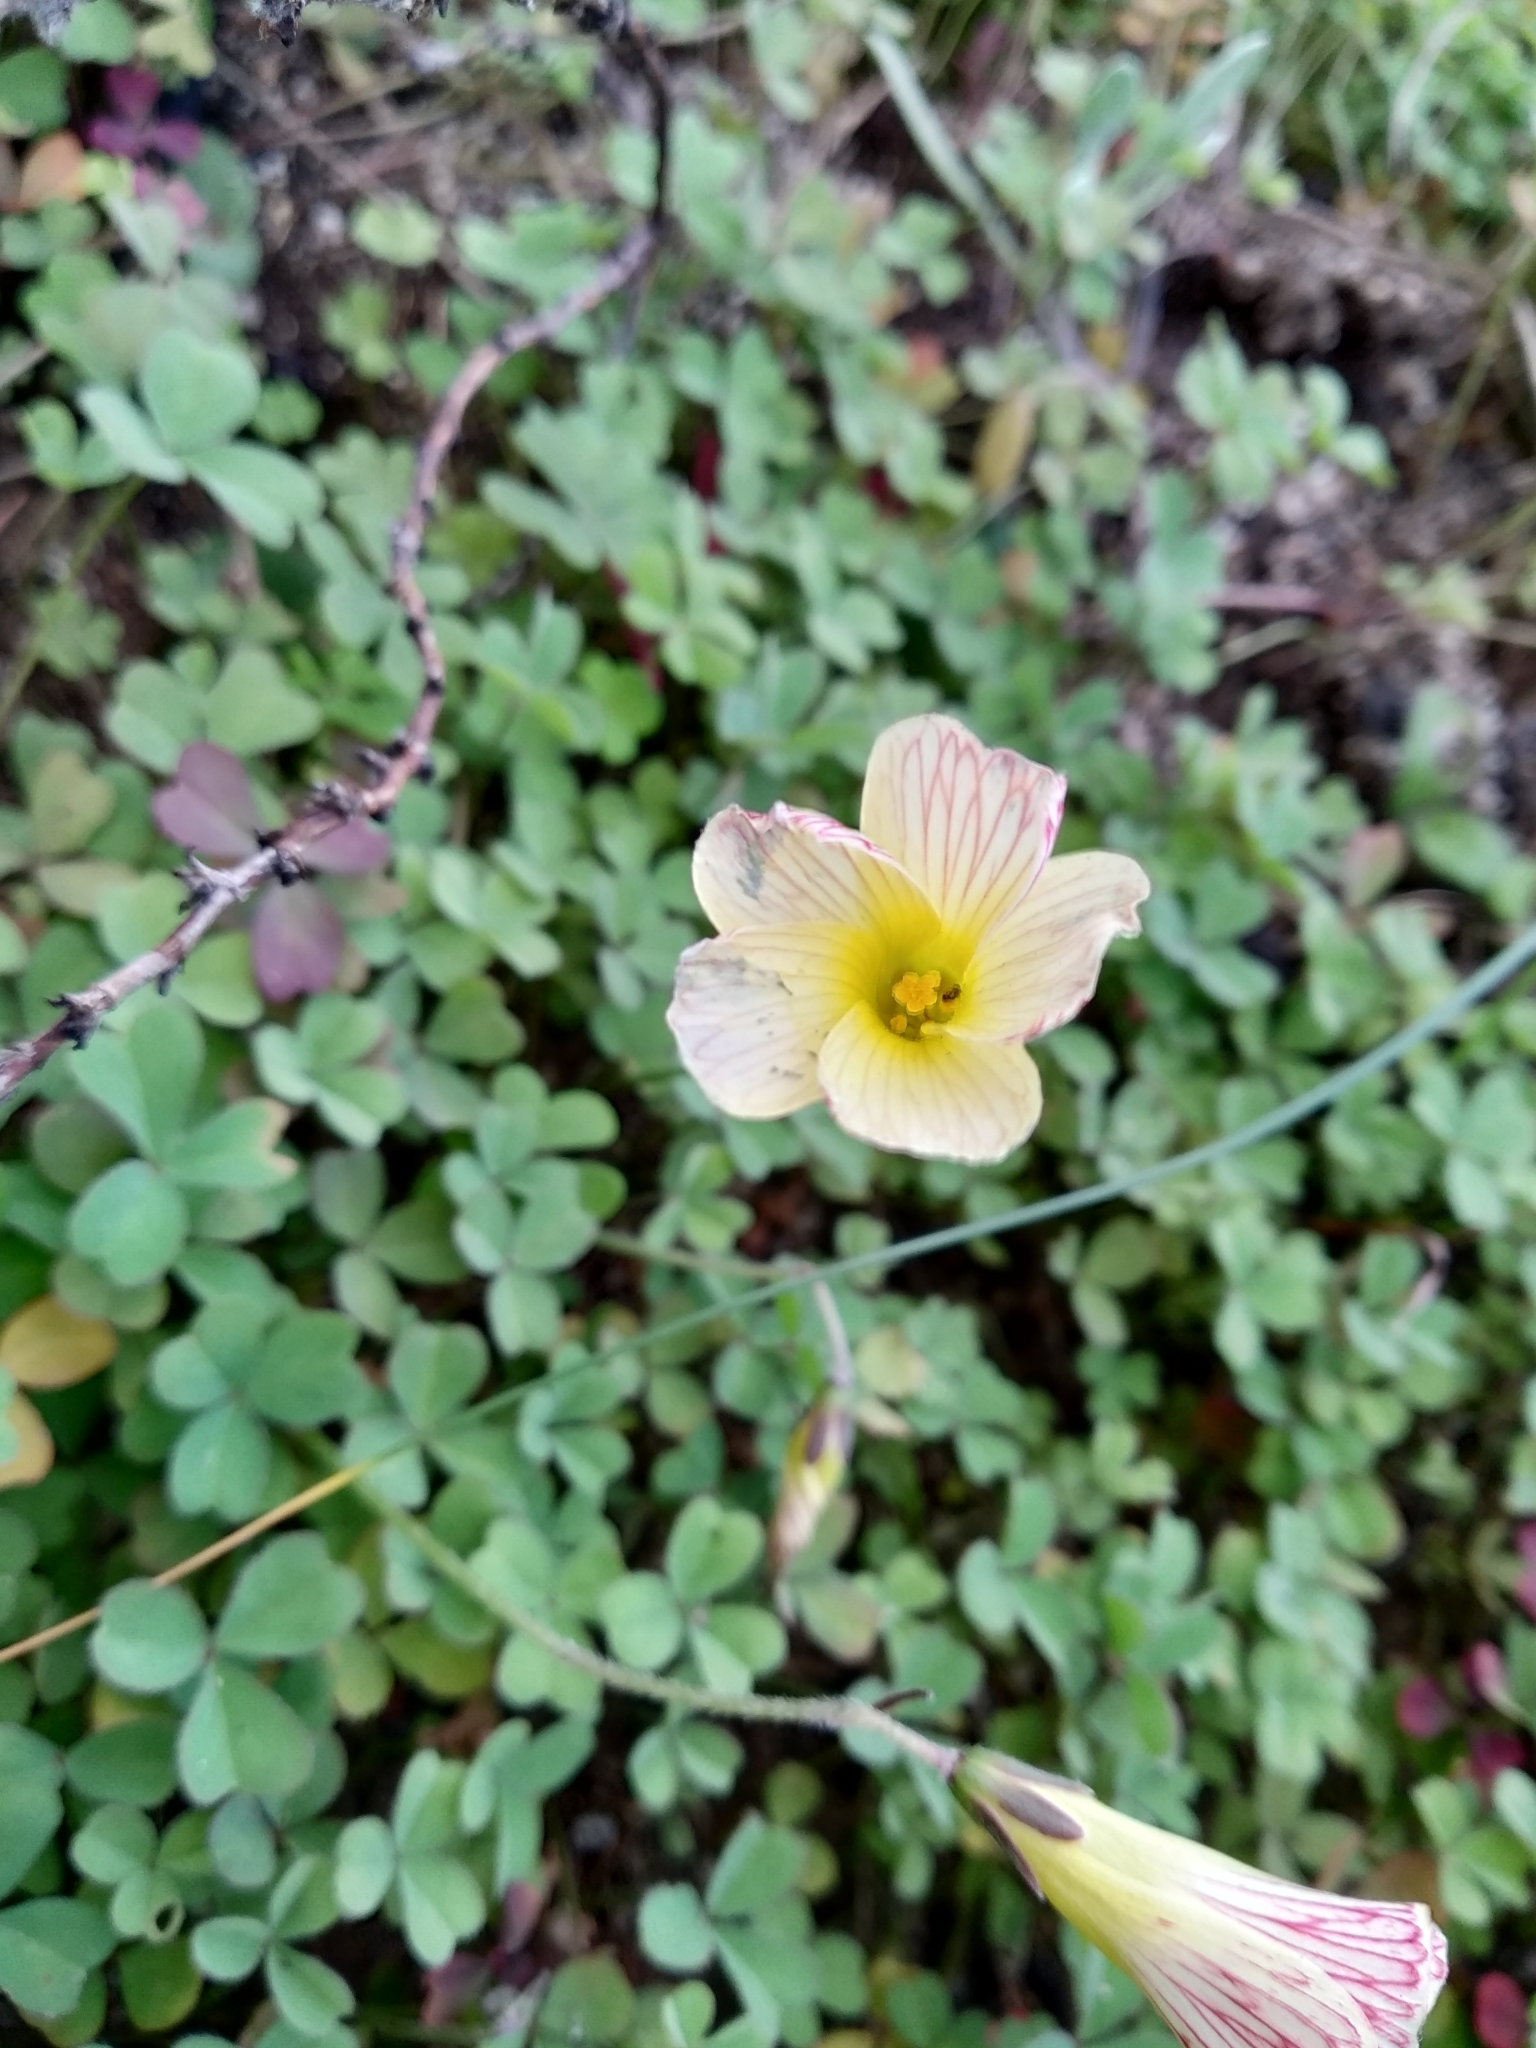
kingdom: Plantae
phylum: Tracheophyta
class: Magnoliopsida
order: Oxalidales
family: Oxalidaceae
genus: Oxalis
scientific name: Oxalis obtusa
